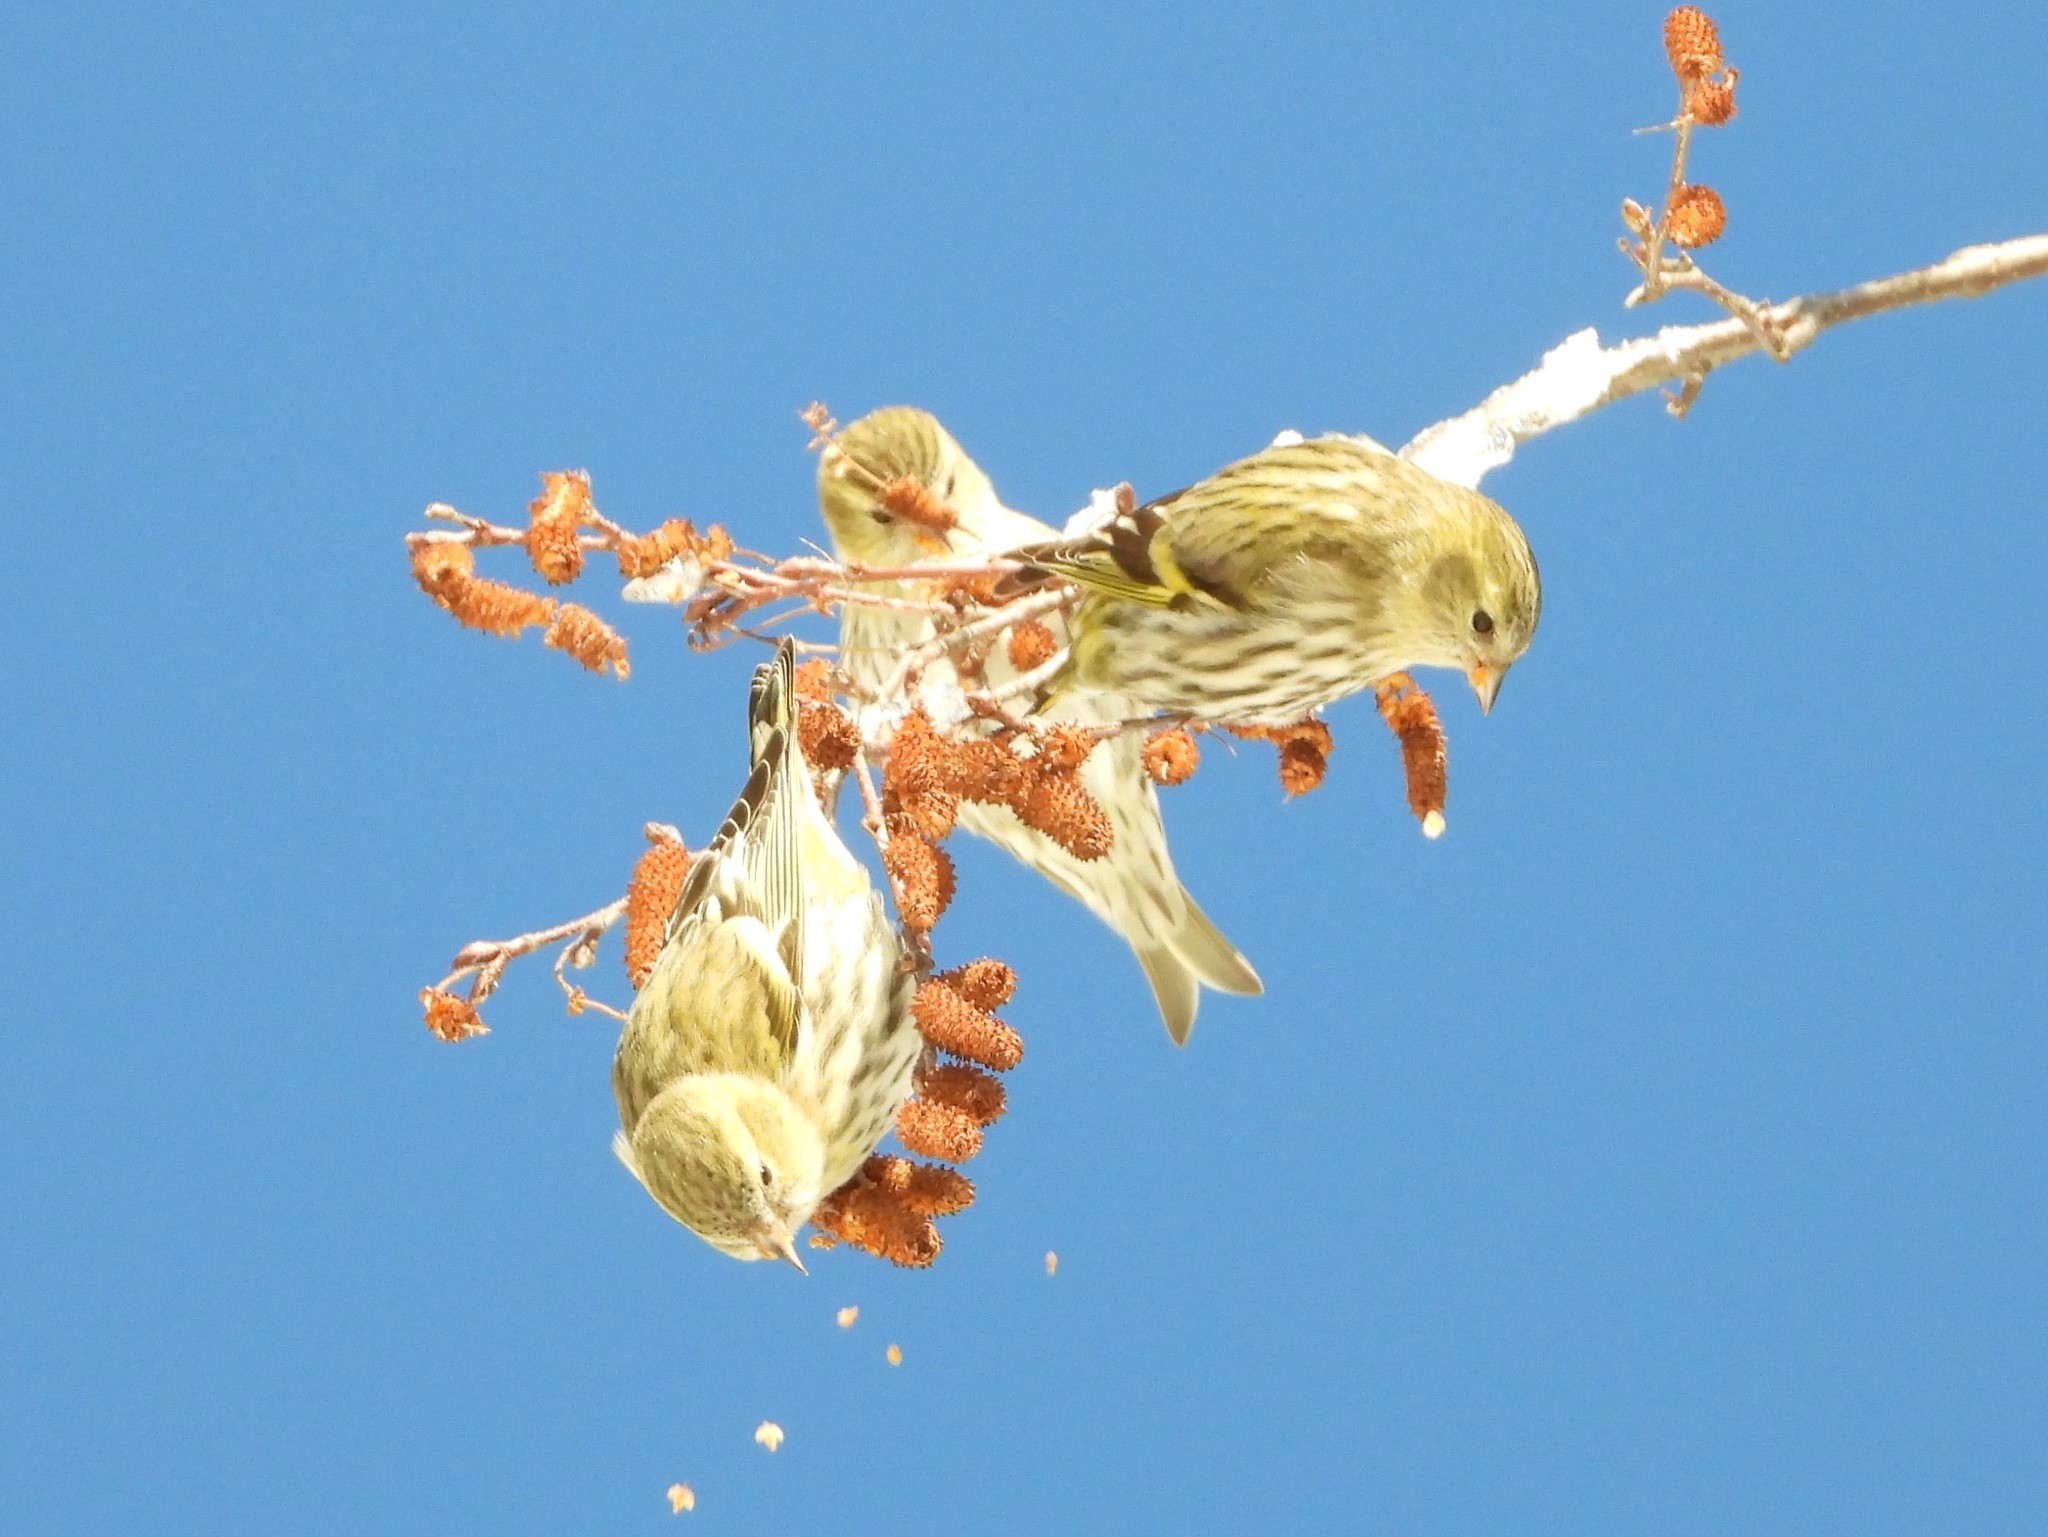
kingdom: Animalia
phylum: Chordata
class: Aves
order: Passeriformes
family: Fringillidae
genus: Spinus
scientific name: Spinus spinus
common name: Eurasian siskin
